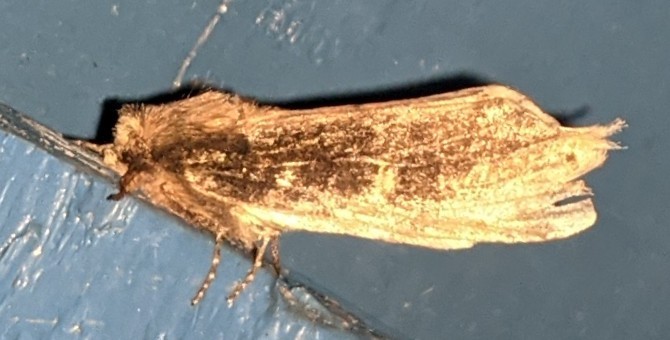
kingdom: Animalia
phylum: Arthropoda
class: Insecta
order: Lepidoptera
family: Notodontidae
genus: Schizura
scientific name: Schizura ipomaeae
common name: Morning-glory prominent
